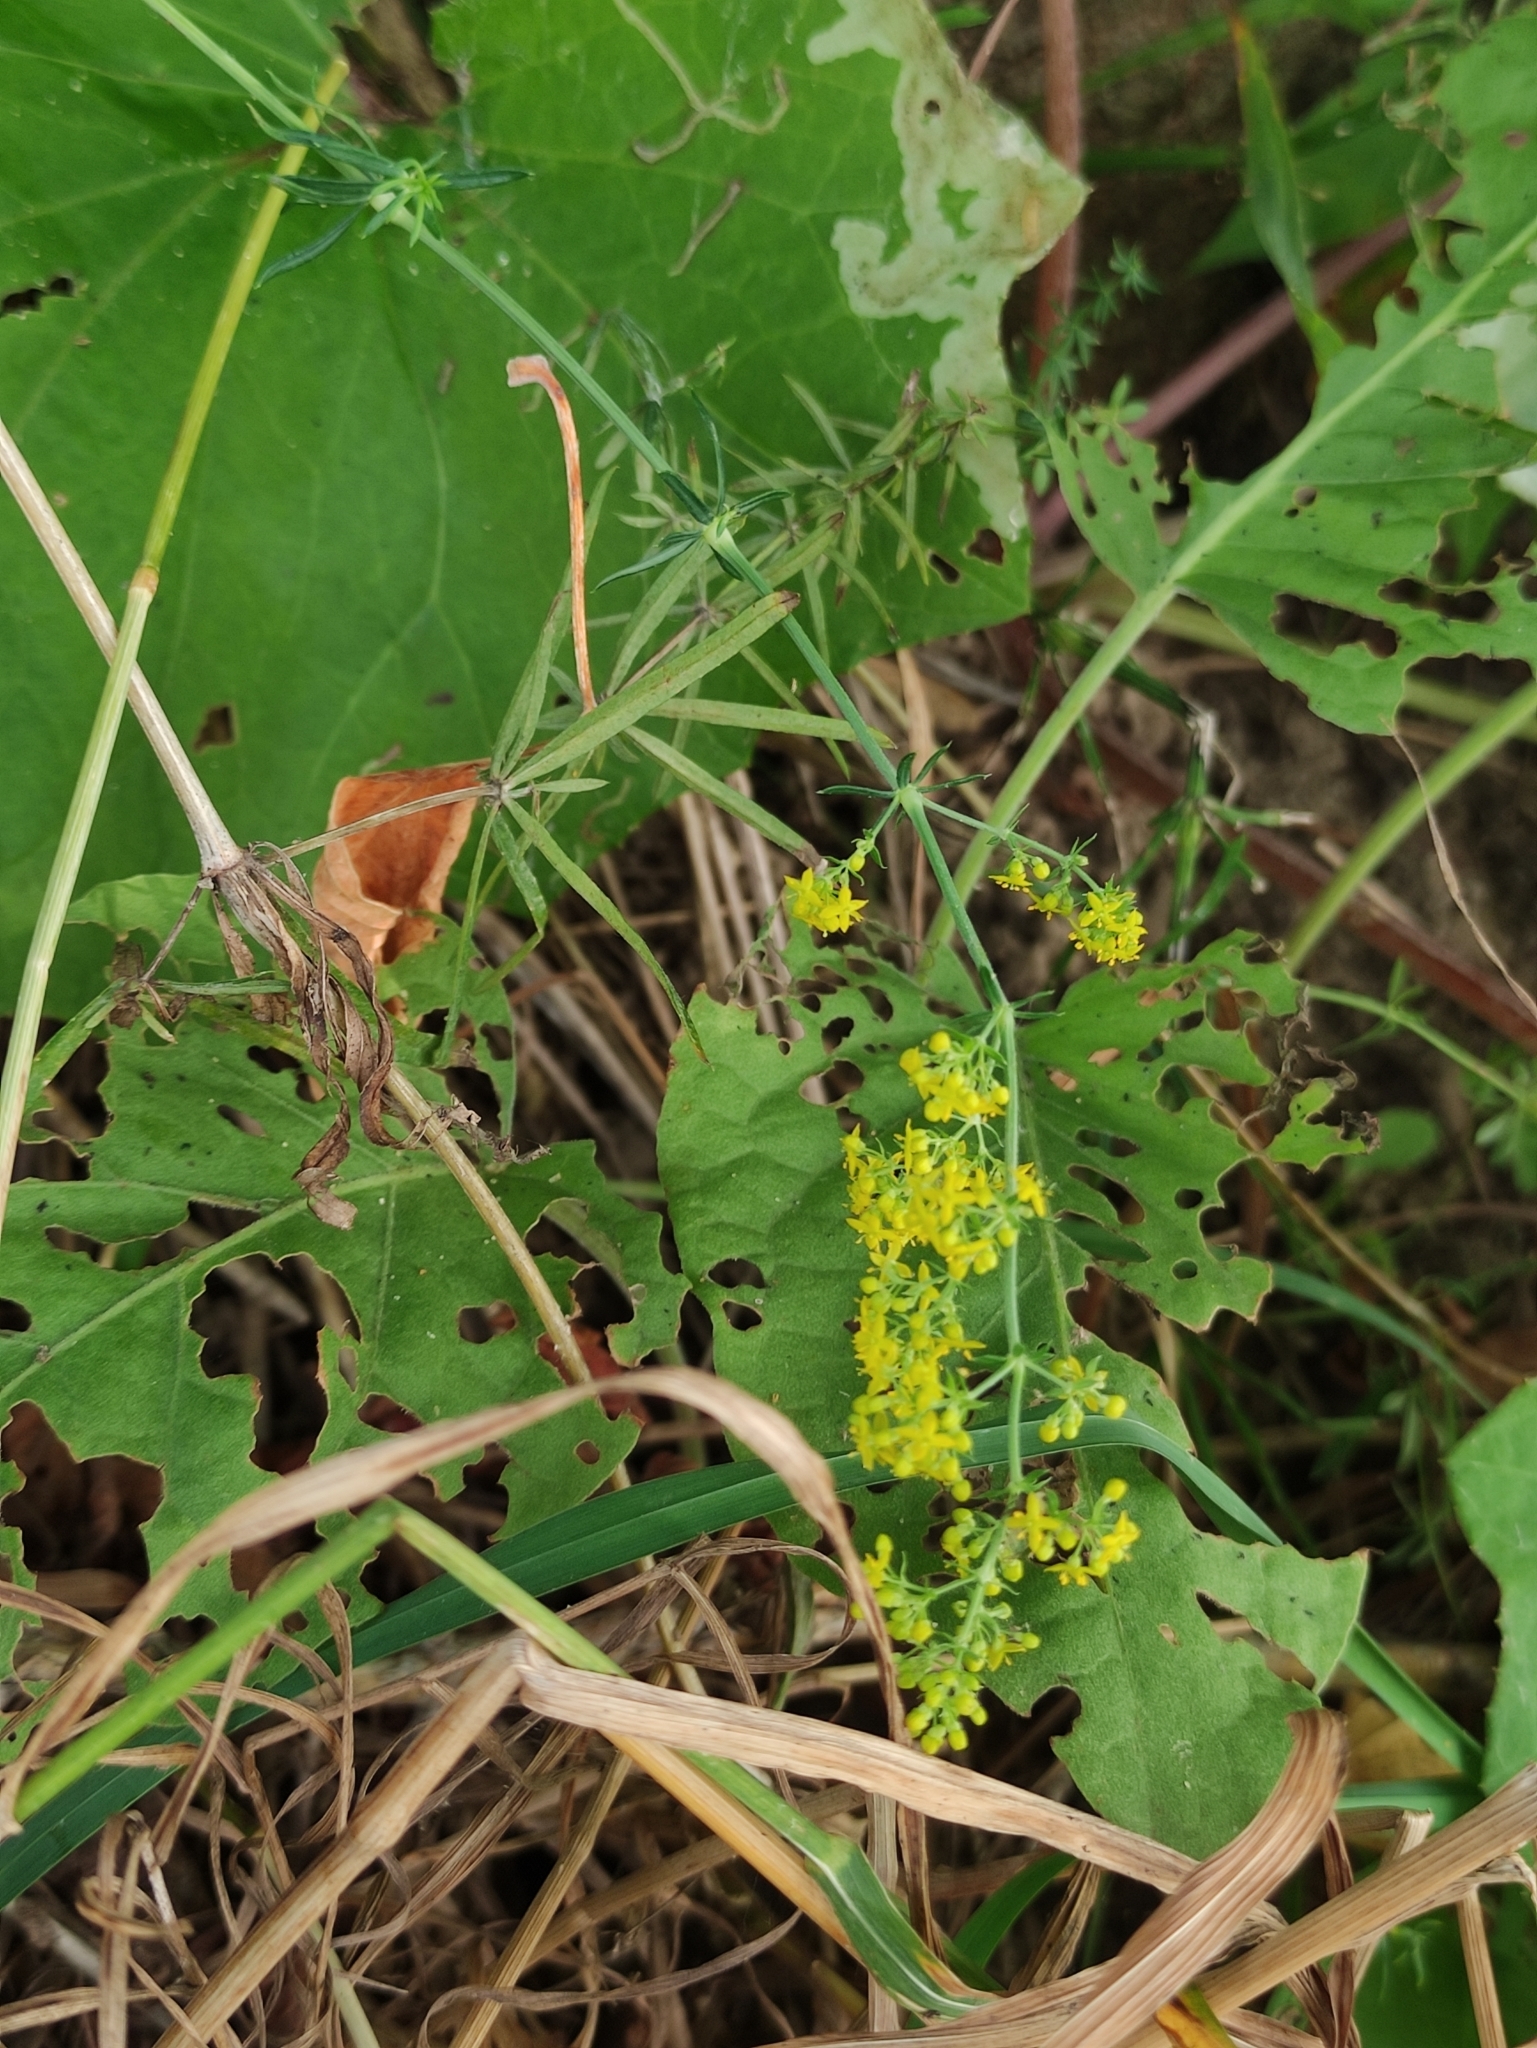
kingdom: Plantae
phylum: Tracheophyta
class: Magnoliopsida
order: Gentianales
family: Rubiaceae
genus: Galium
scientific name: Galium verum
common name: Lady's bedstraw
